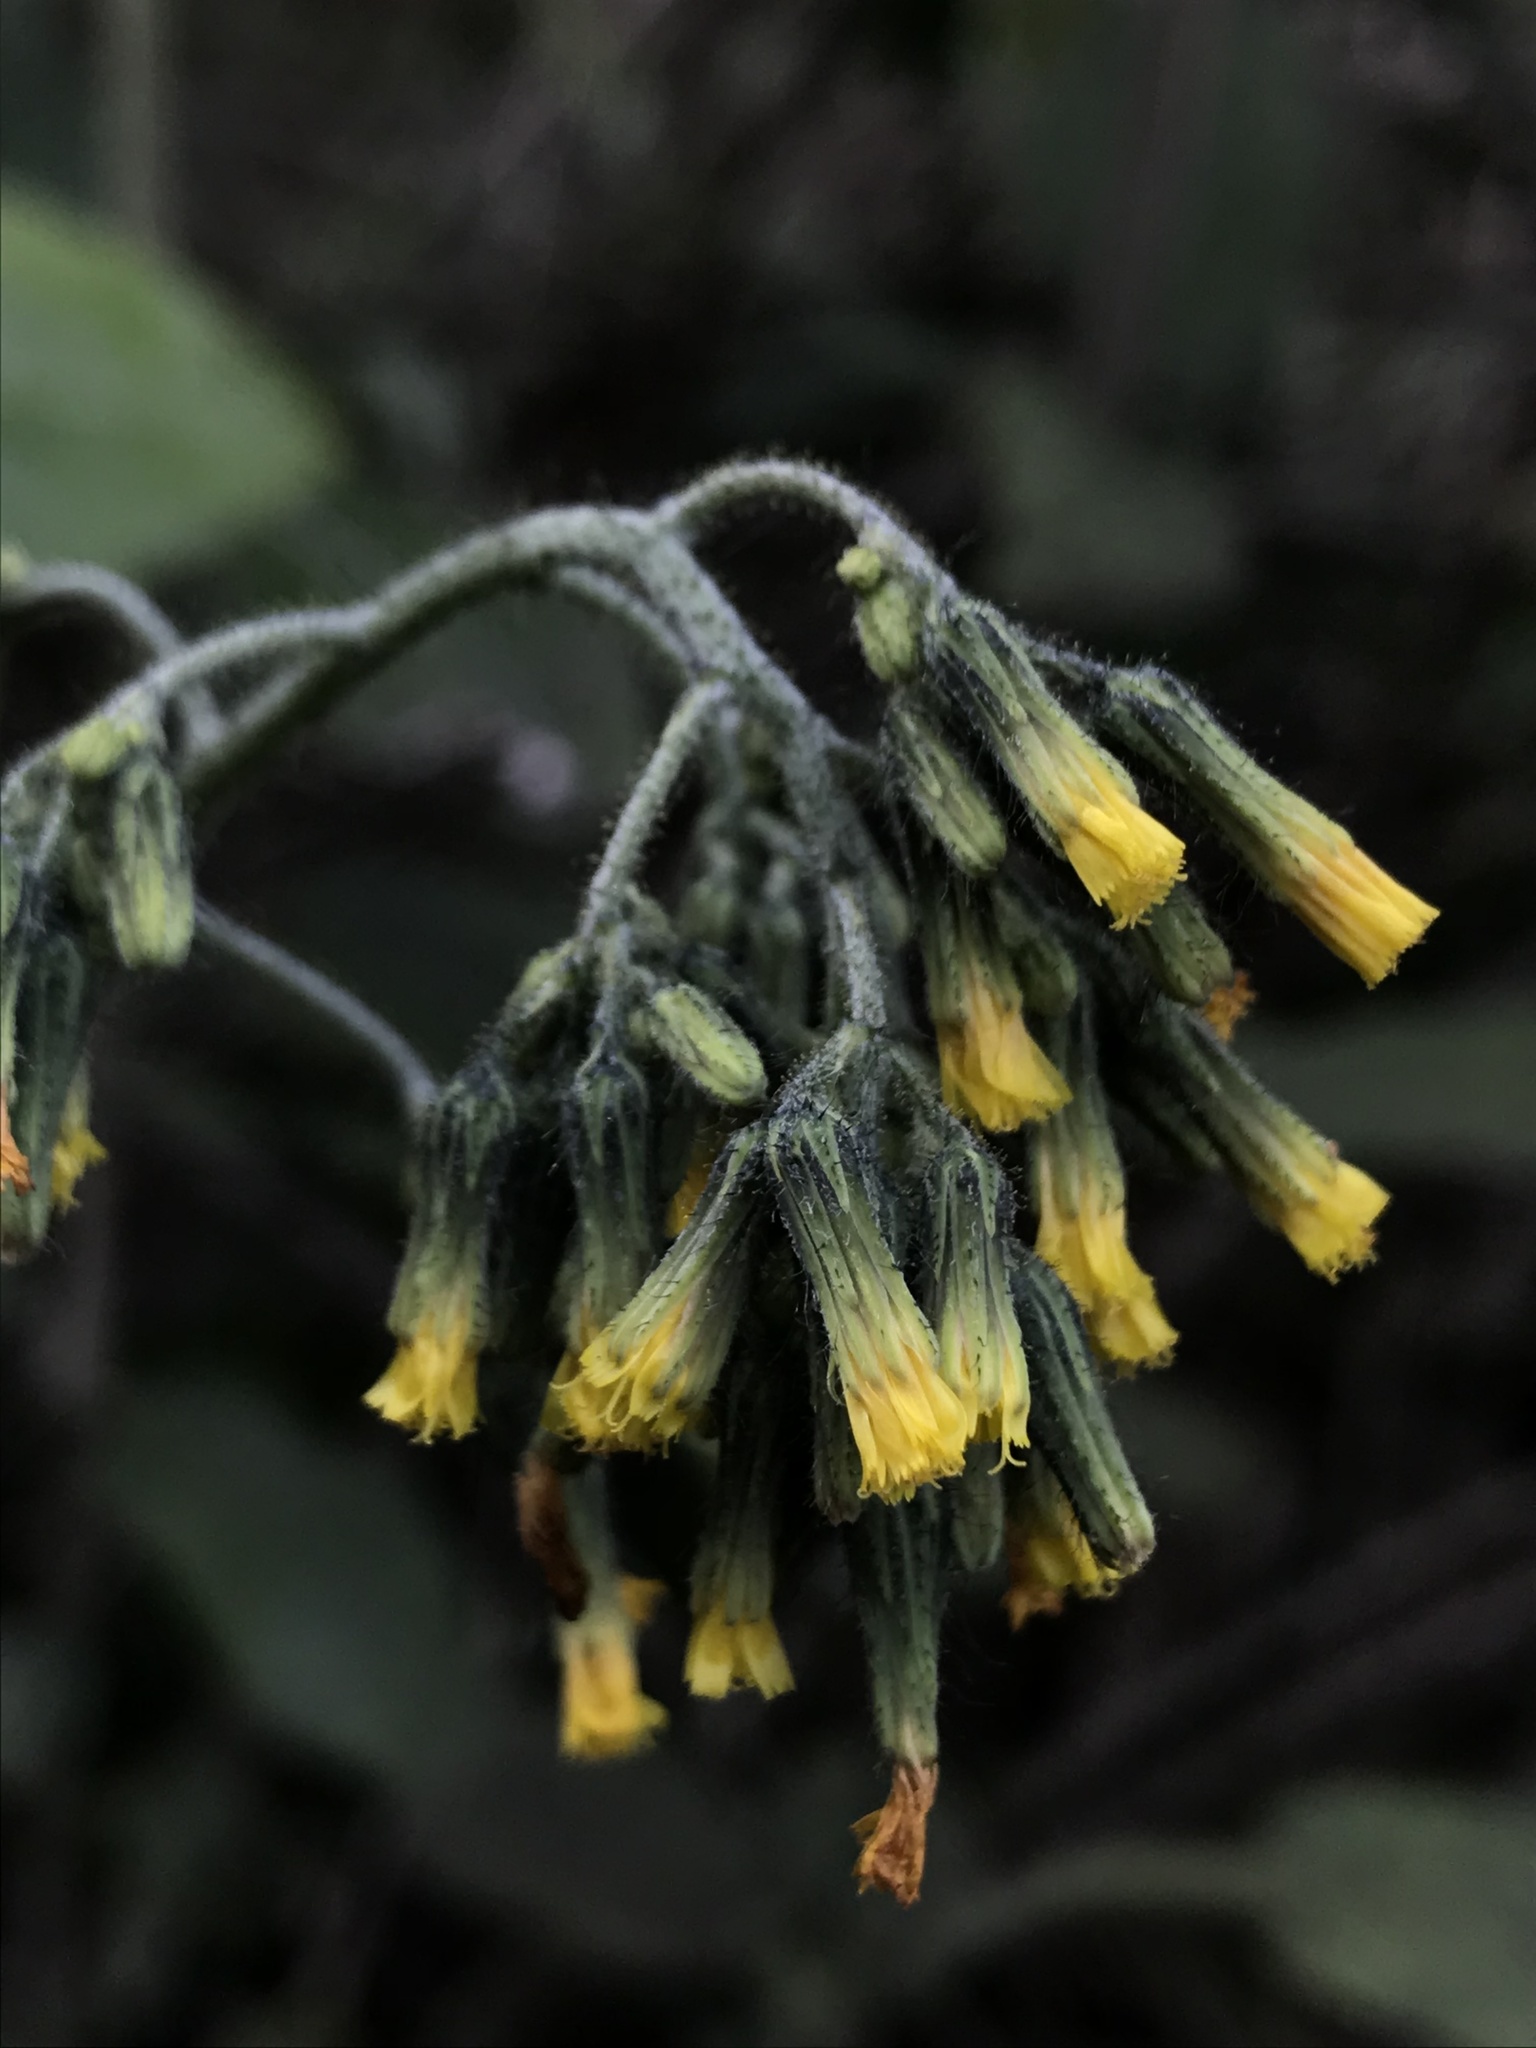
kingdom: Plantae
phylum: Tracheophyta
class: Magnoliopsida
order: Asterales
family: Asteraceae
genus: Hieracium
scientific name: Hieracium avilae
